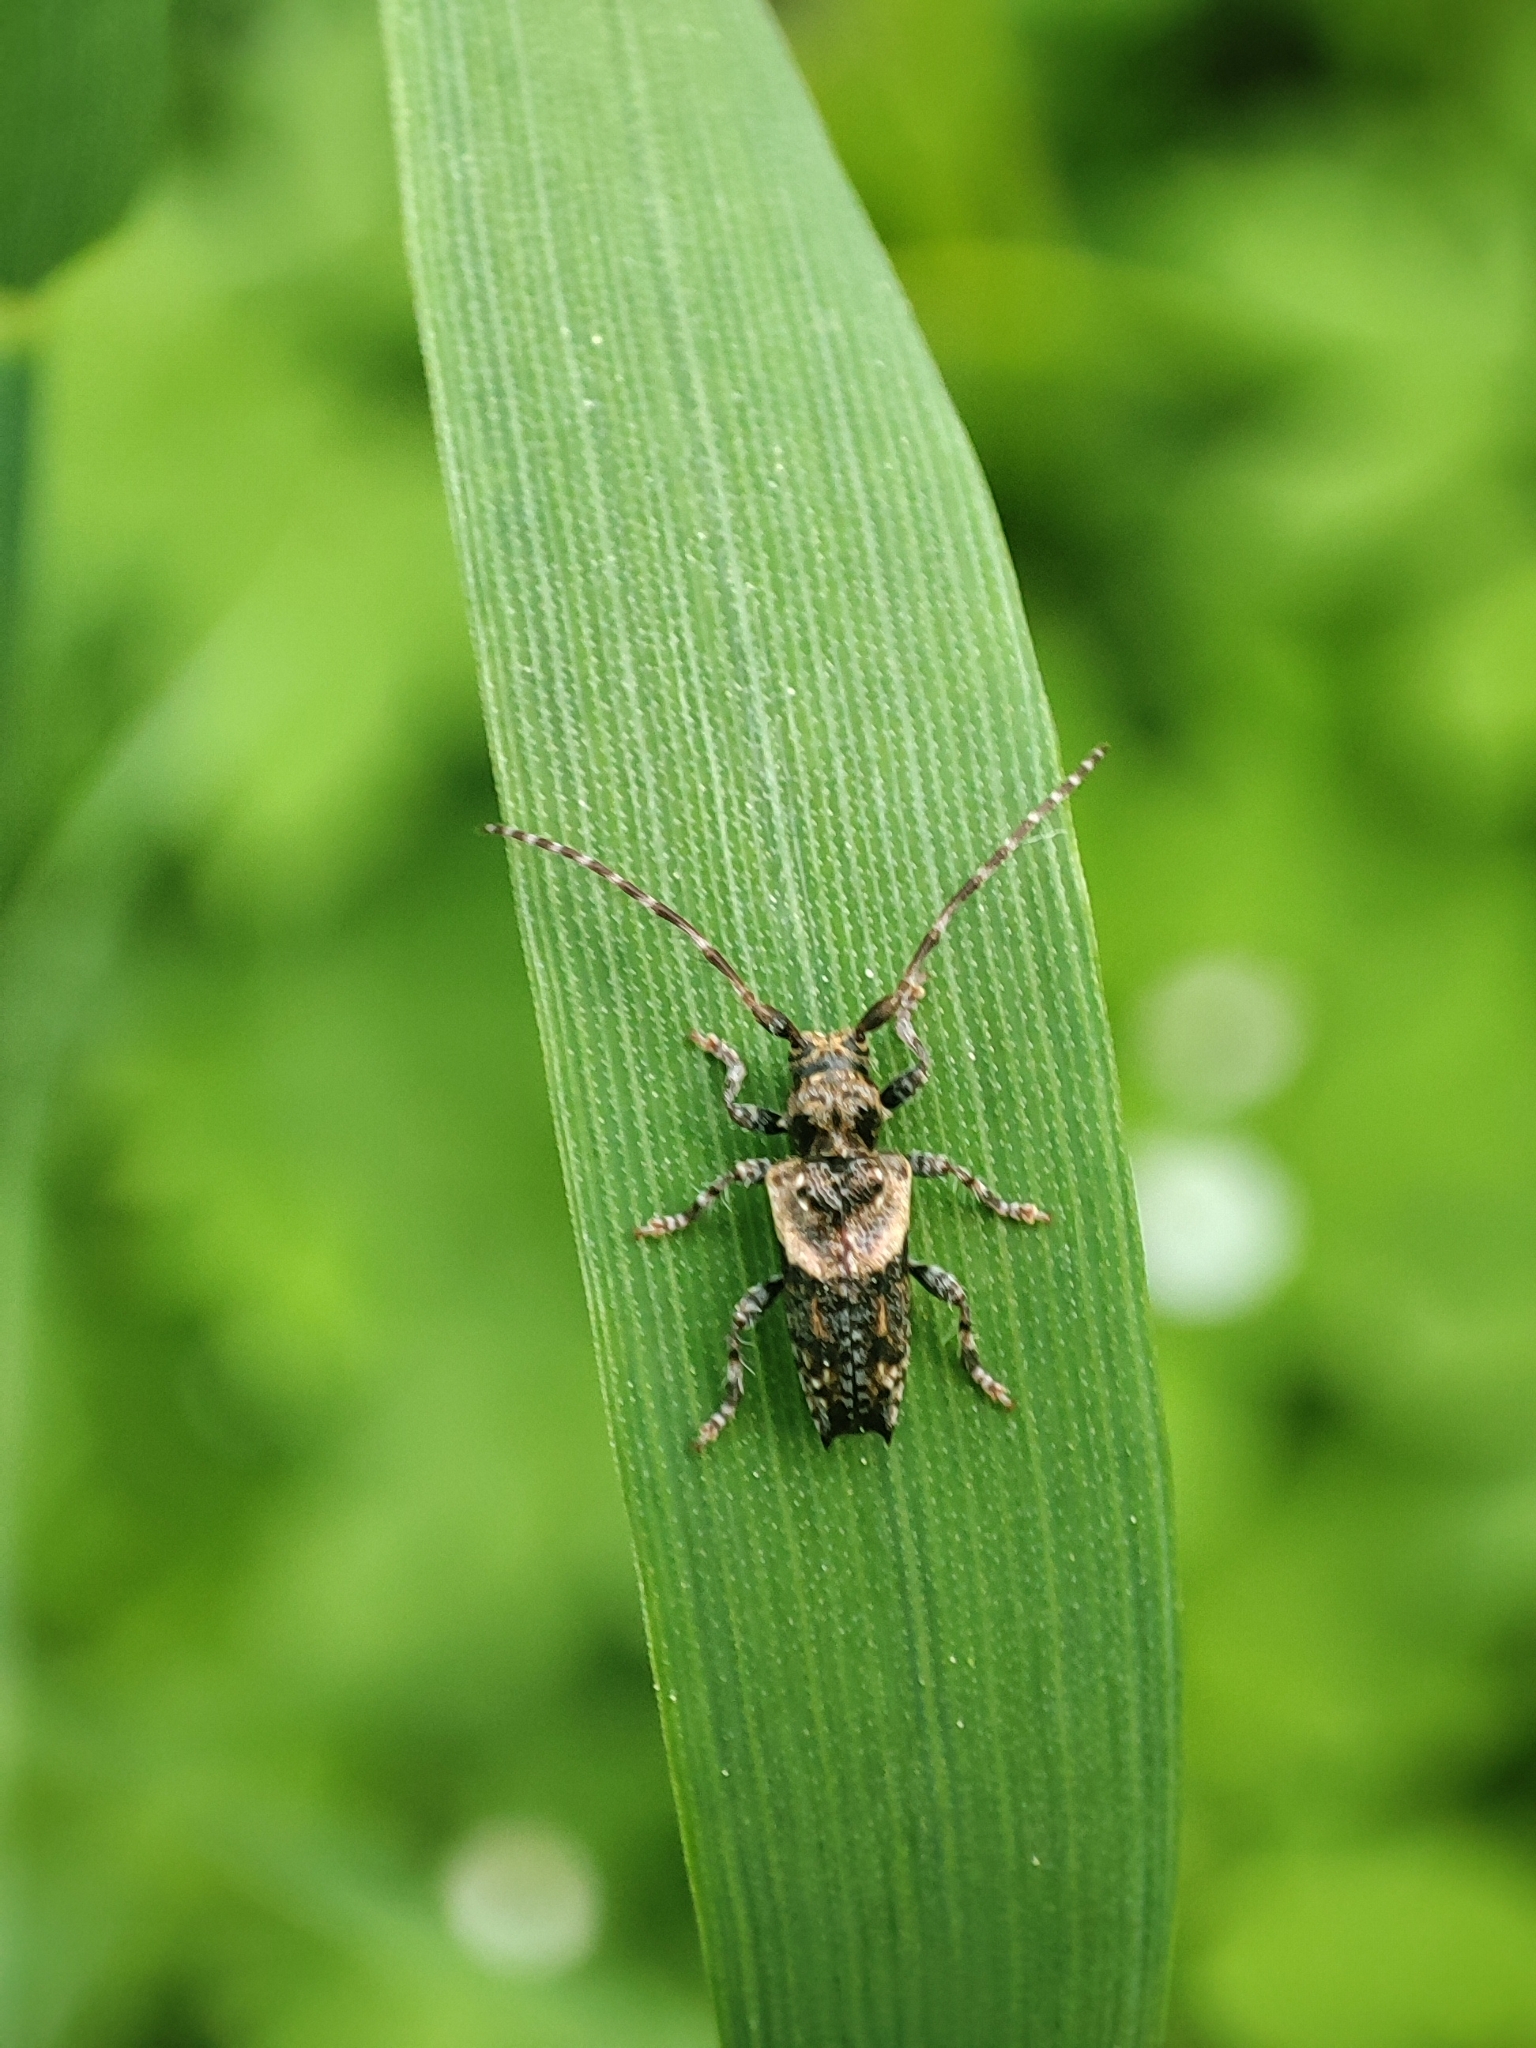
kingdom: Animalia
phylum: Arthropoda
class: Insecta
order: Coleoptera
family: Cerambycidae
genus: Pogonocherus
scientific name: Pogonocherus hispidus
